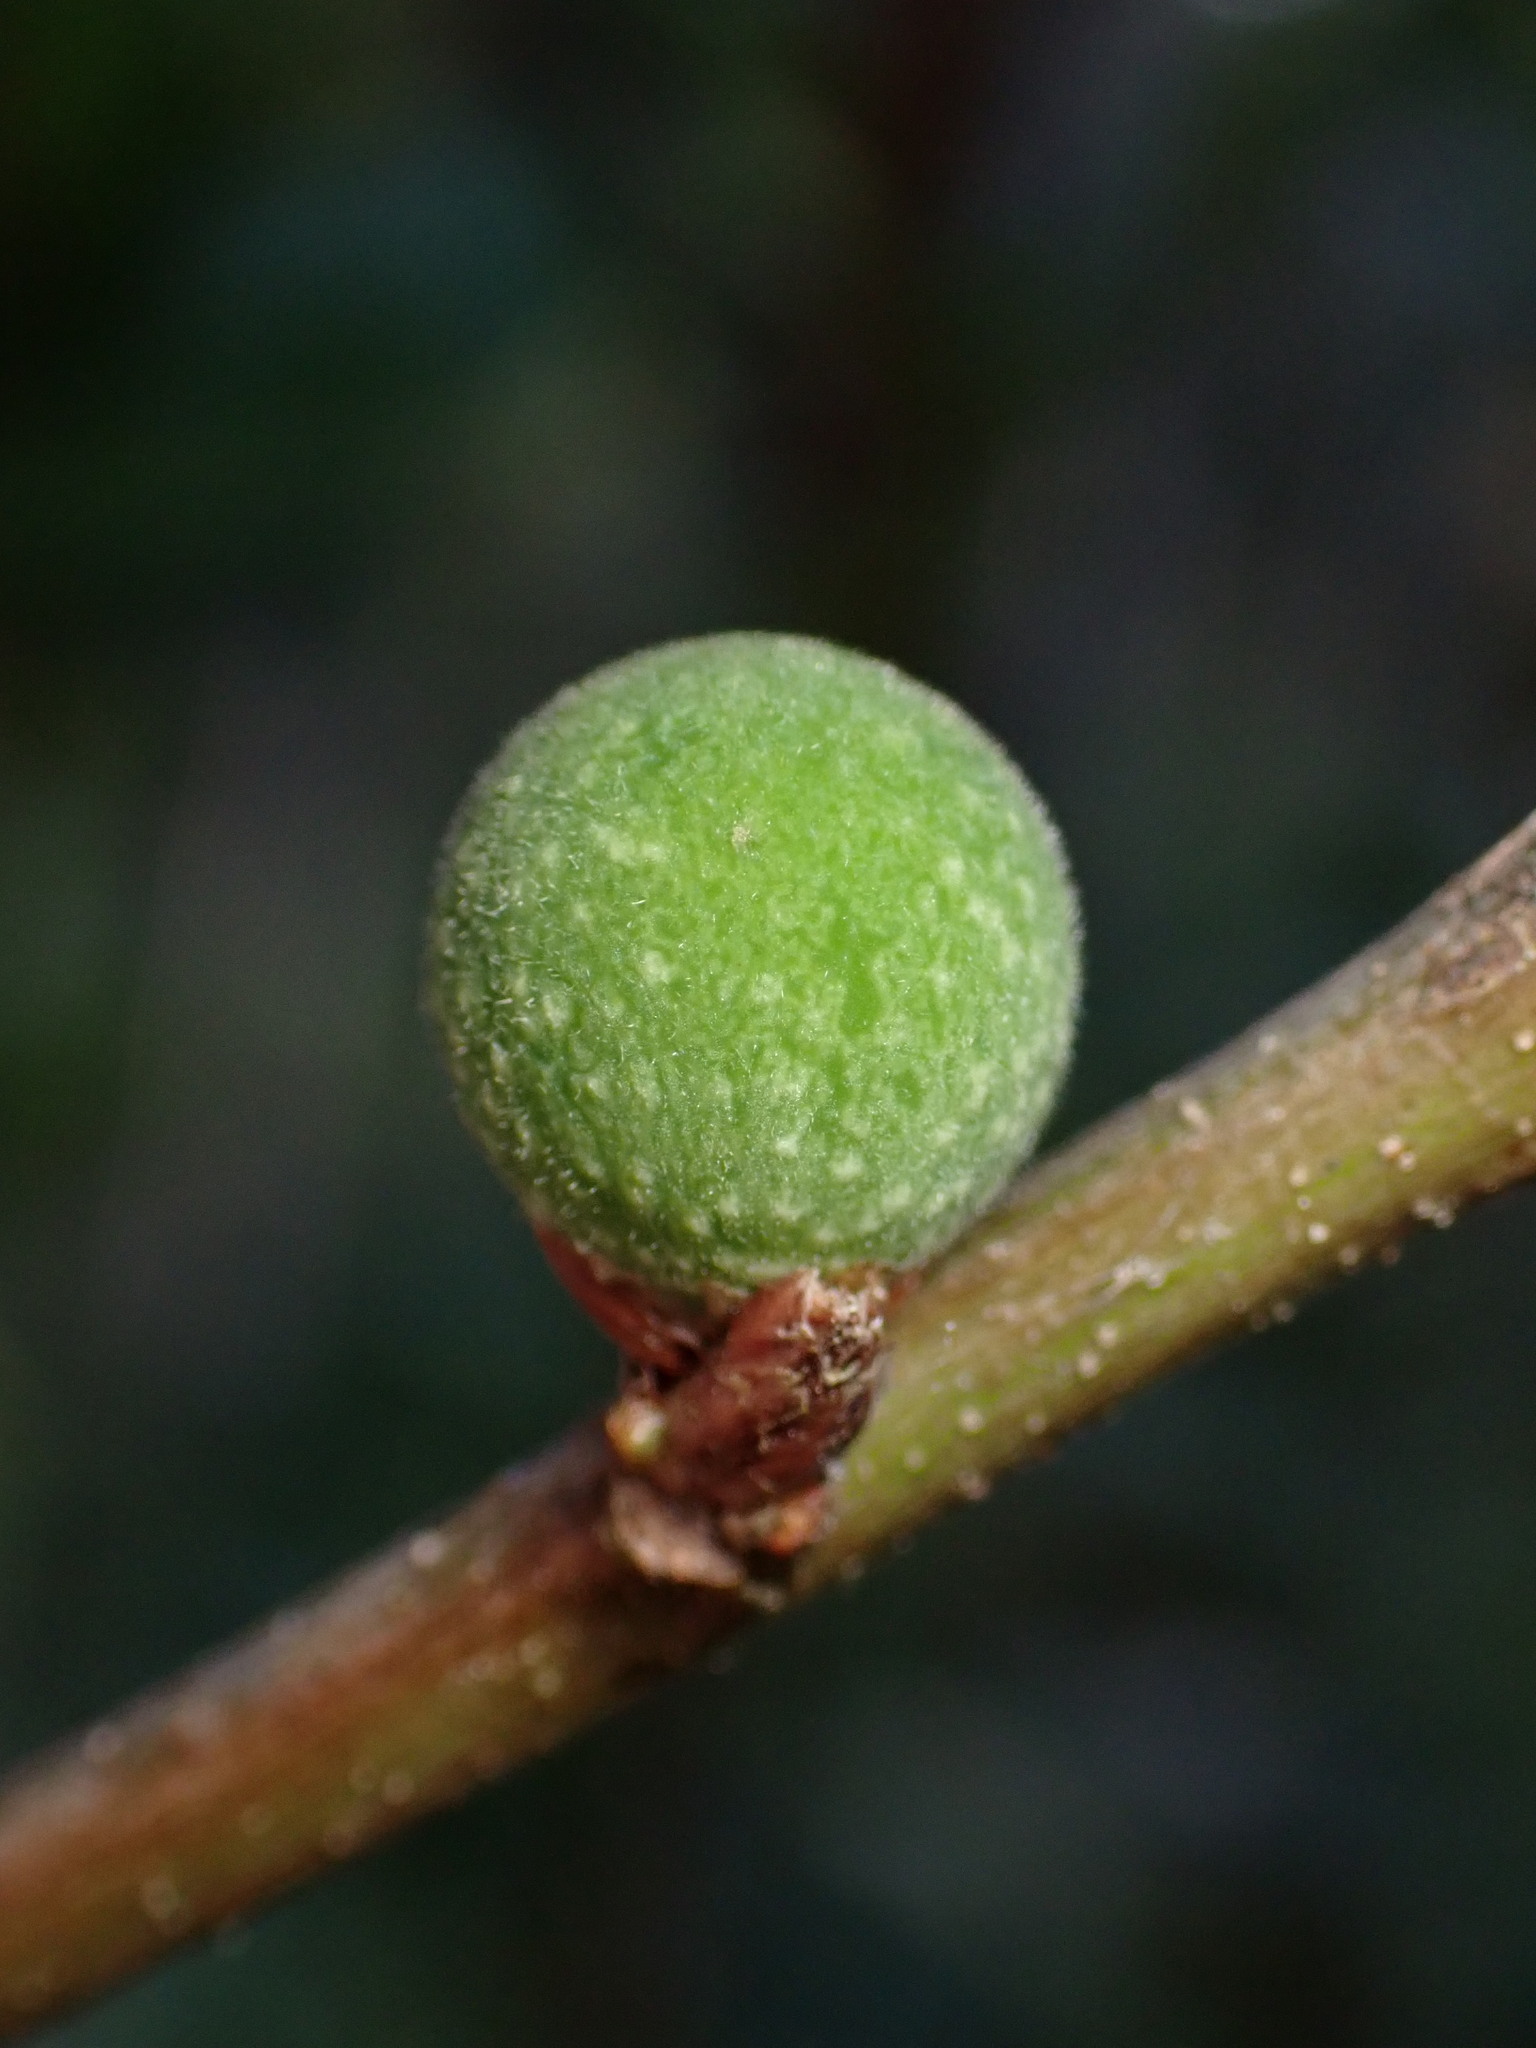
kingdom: Animalia
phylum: Arthropoda
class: Insecta
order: Hymenoptera
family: Cynipidae
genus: Callirhytis
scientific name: Callirhytis
